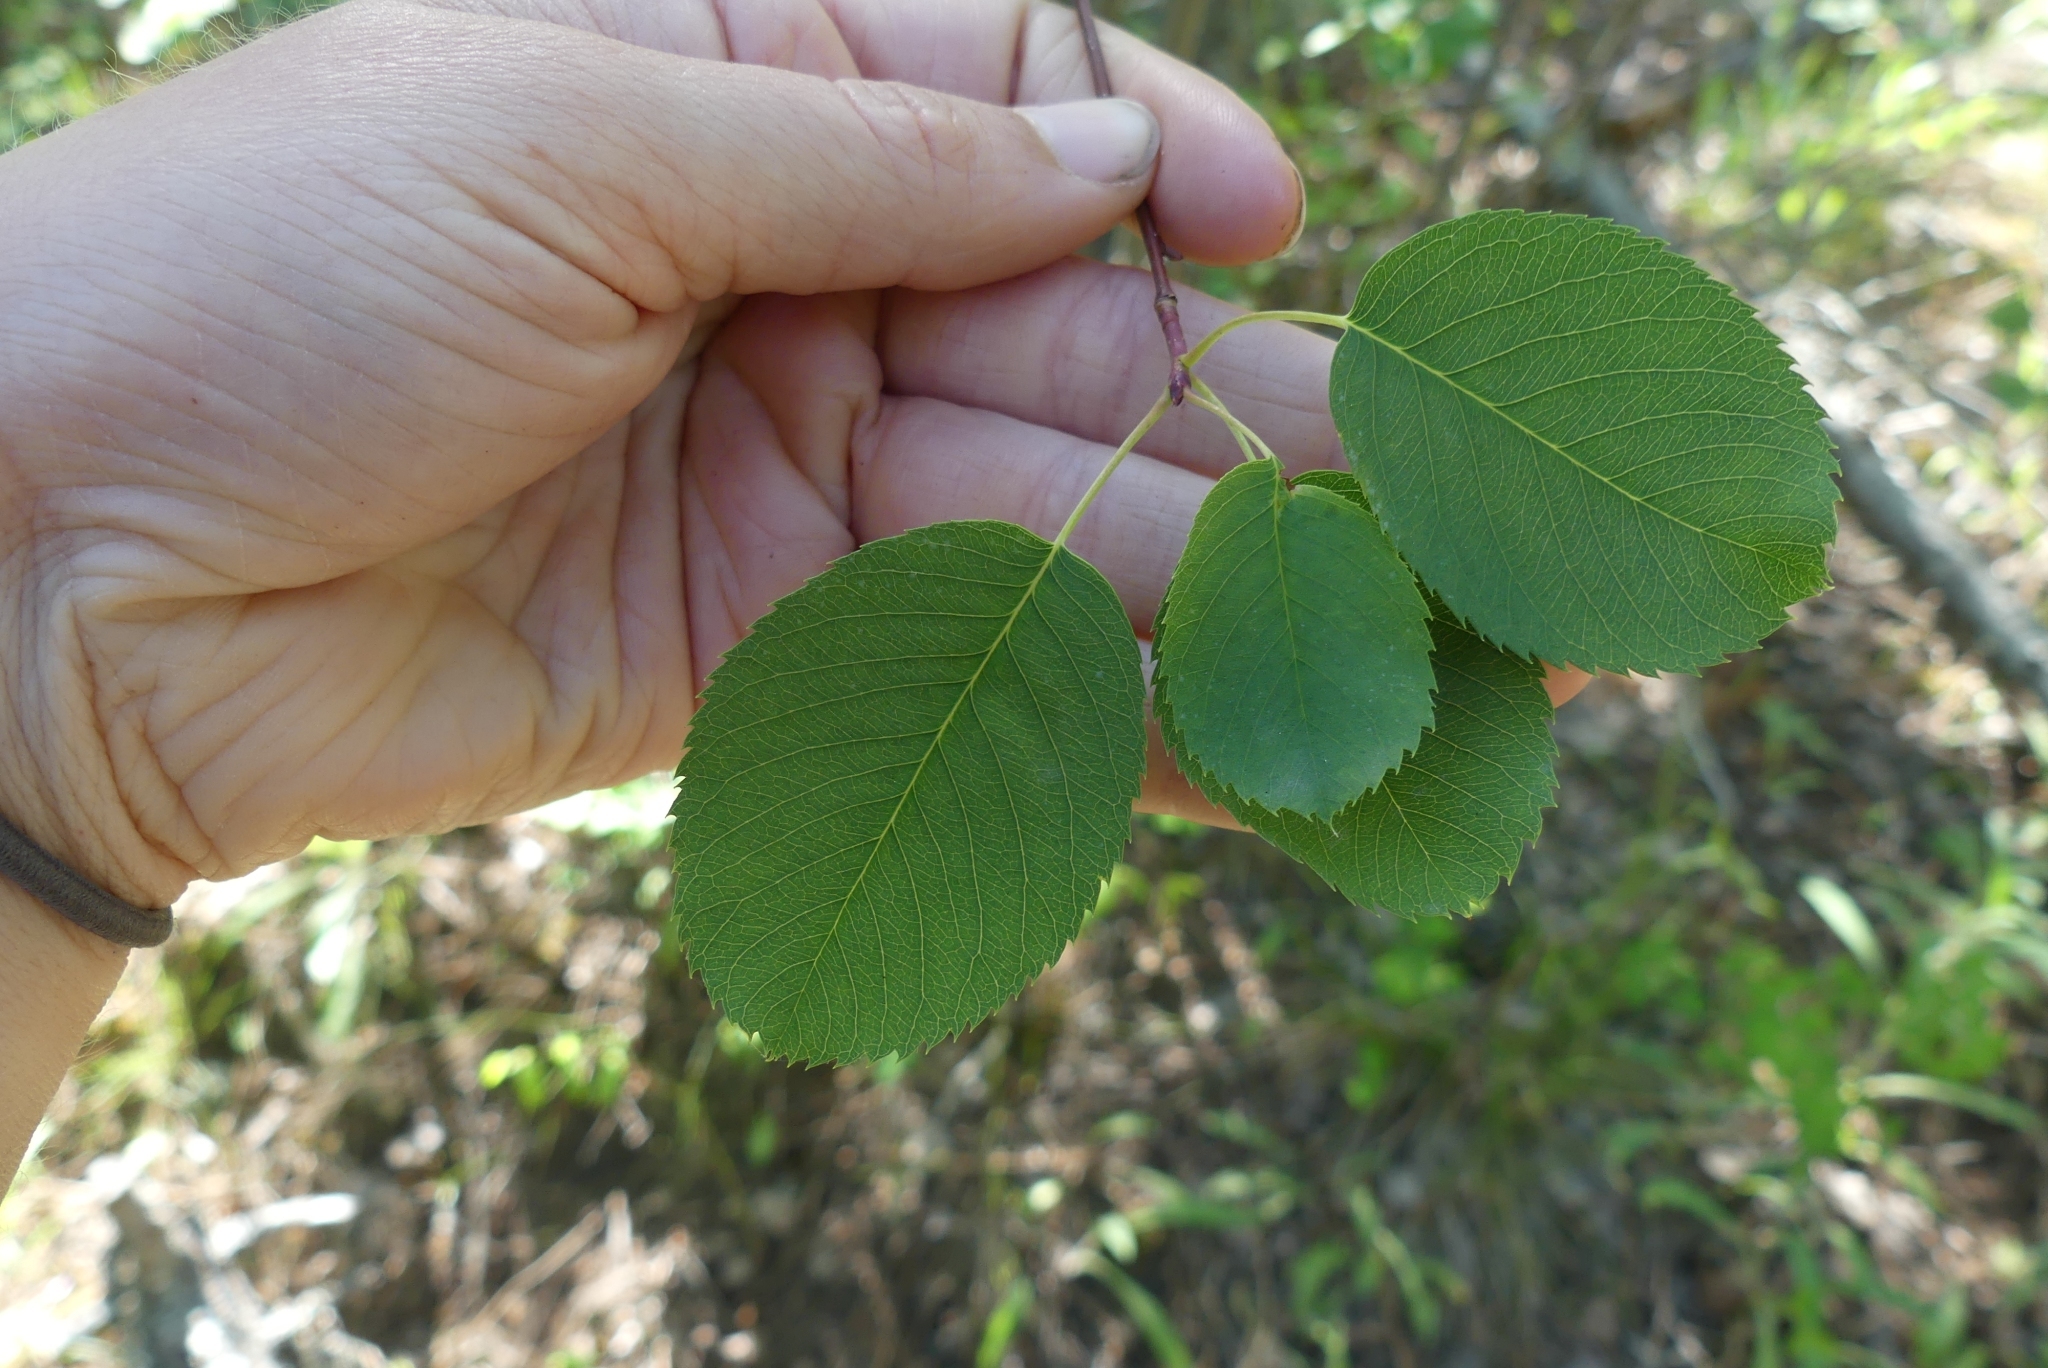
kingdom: Plantae
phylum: Tracheophyta
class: Magnoliopsida
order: Rosales
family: Rosaceae
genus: Amelanchier
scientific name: Amelanchier alnifolia
